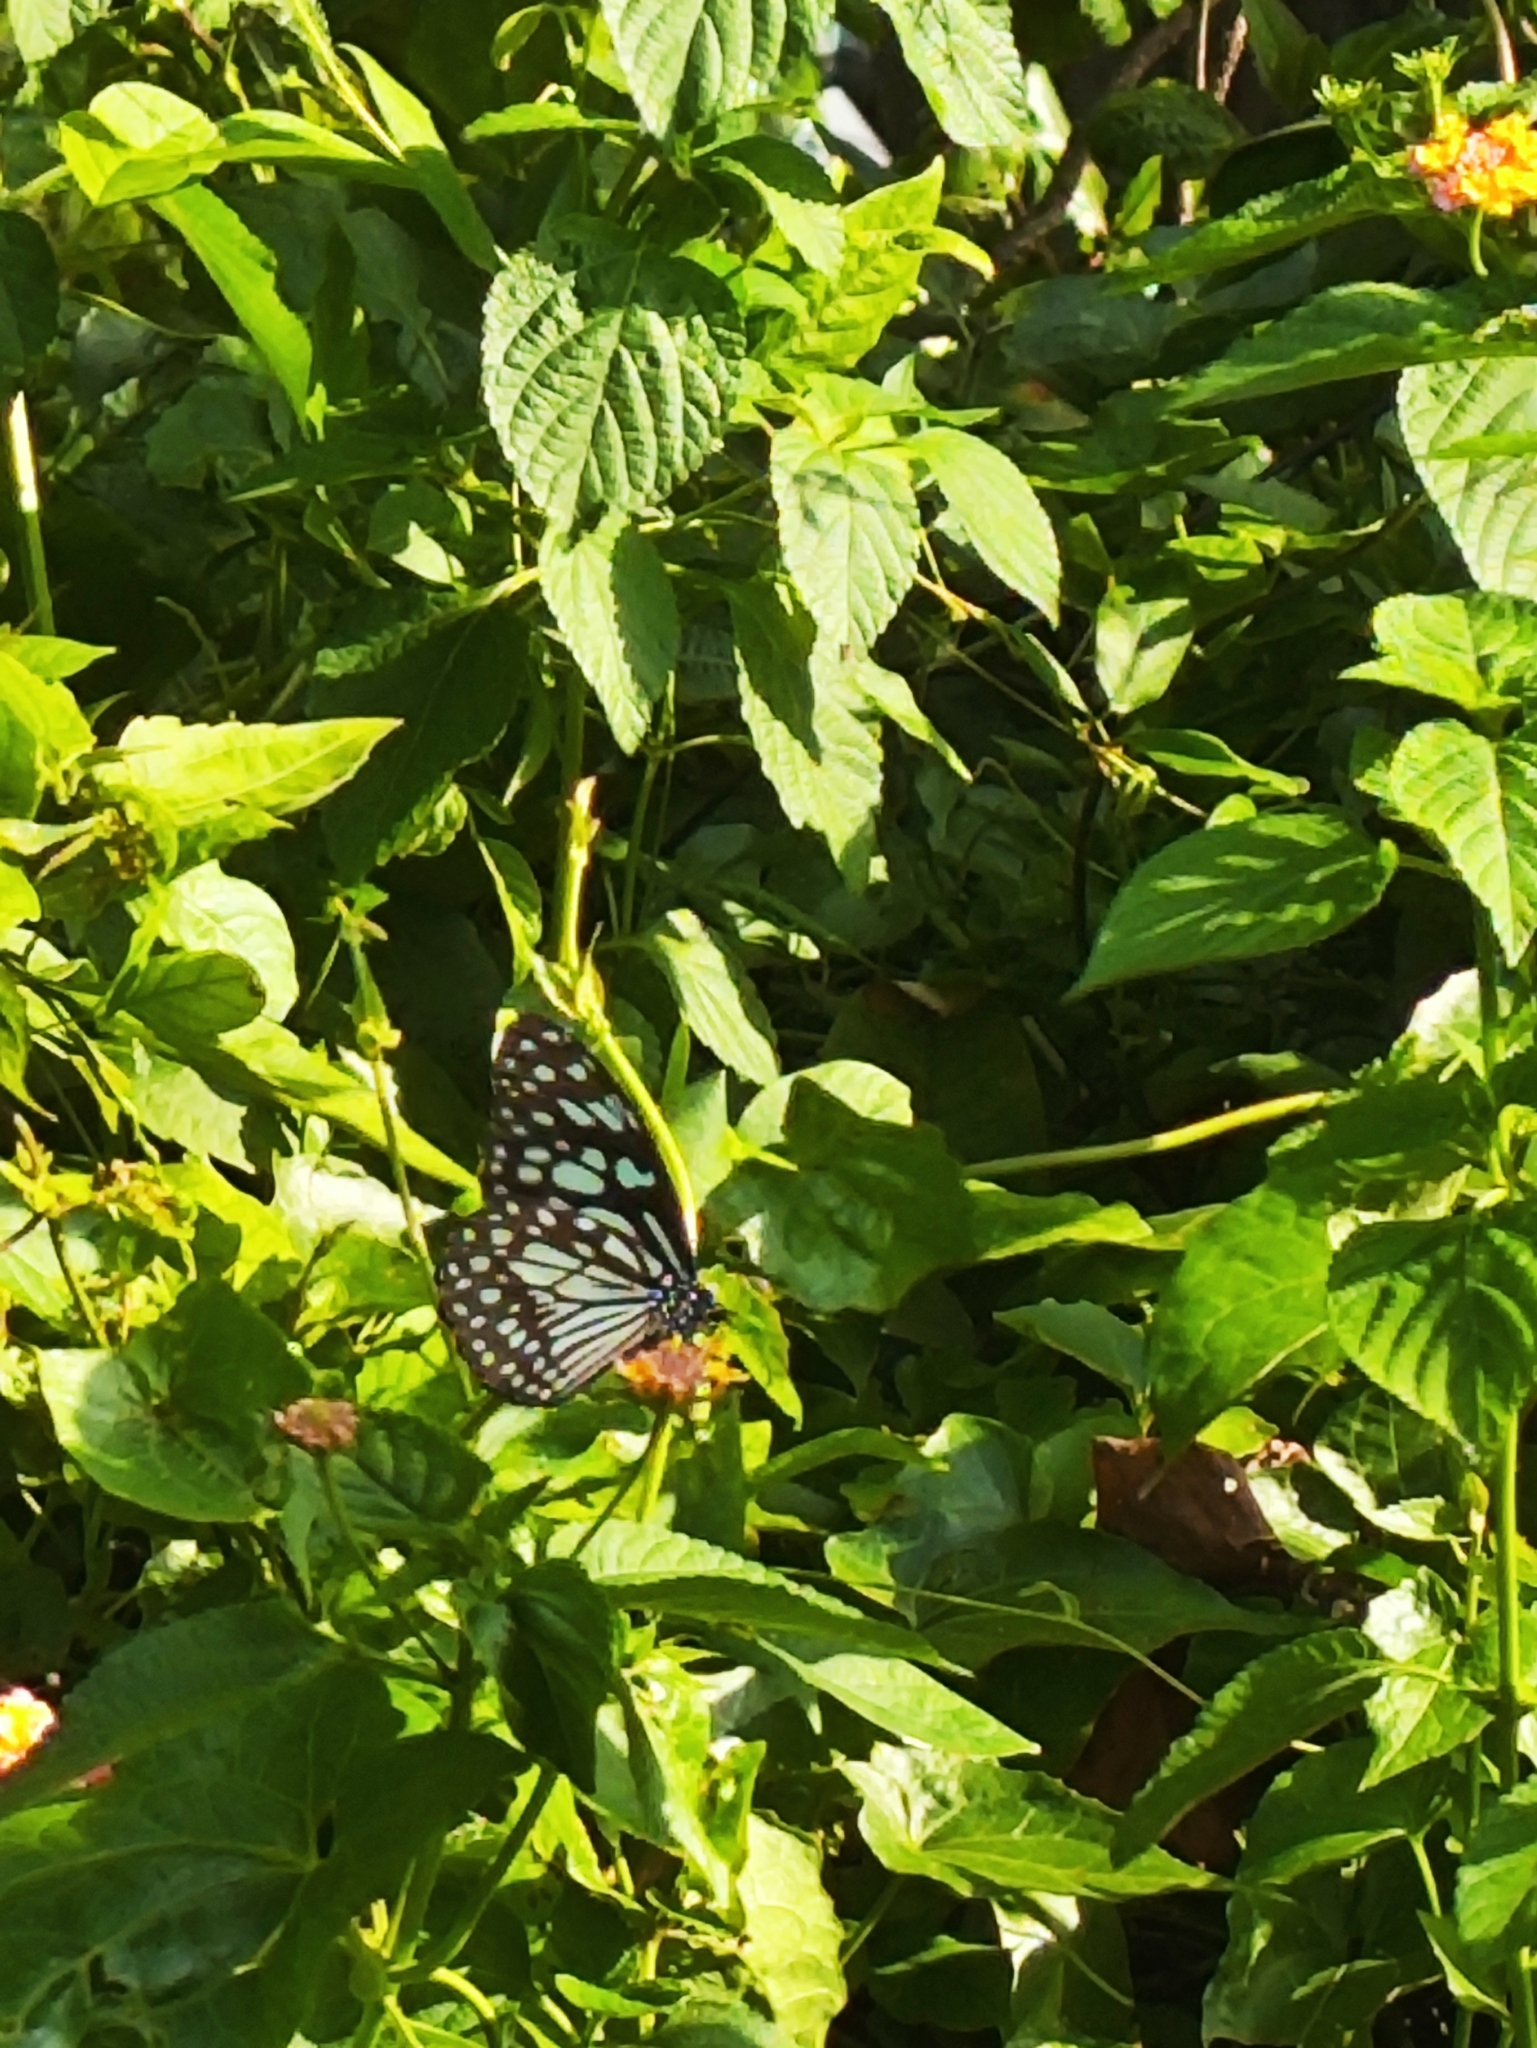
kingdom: Animalia
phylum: Arthropoda
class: Insecta
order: Lepidoptera
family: Nymphalidae
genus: Tirumala
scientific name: Tirumala limniace
